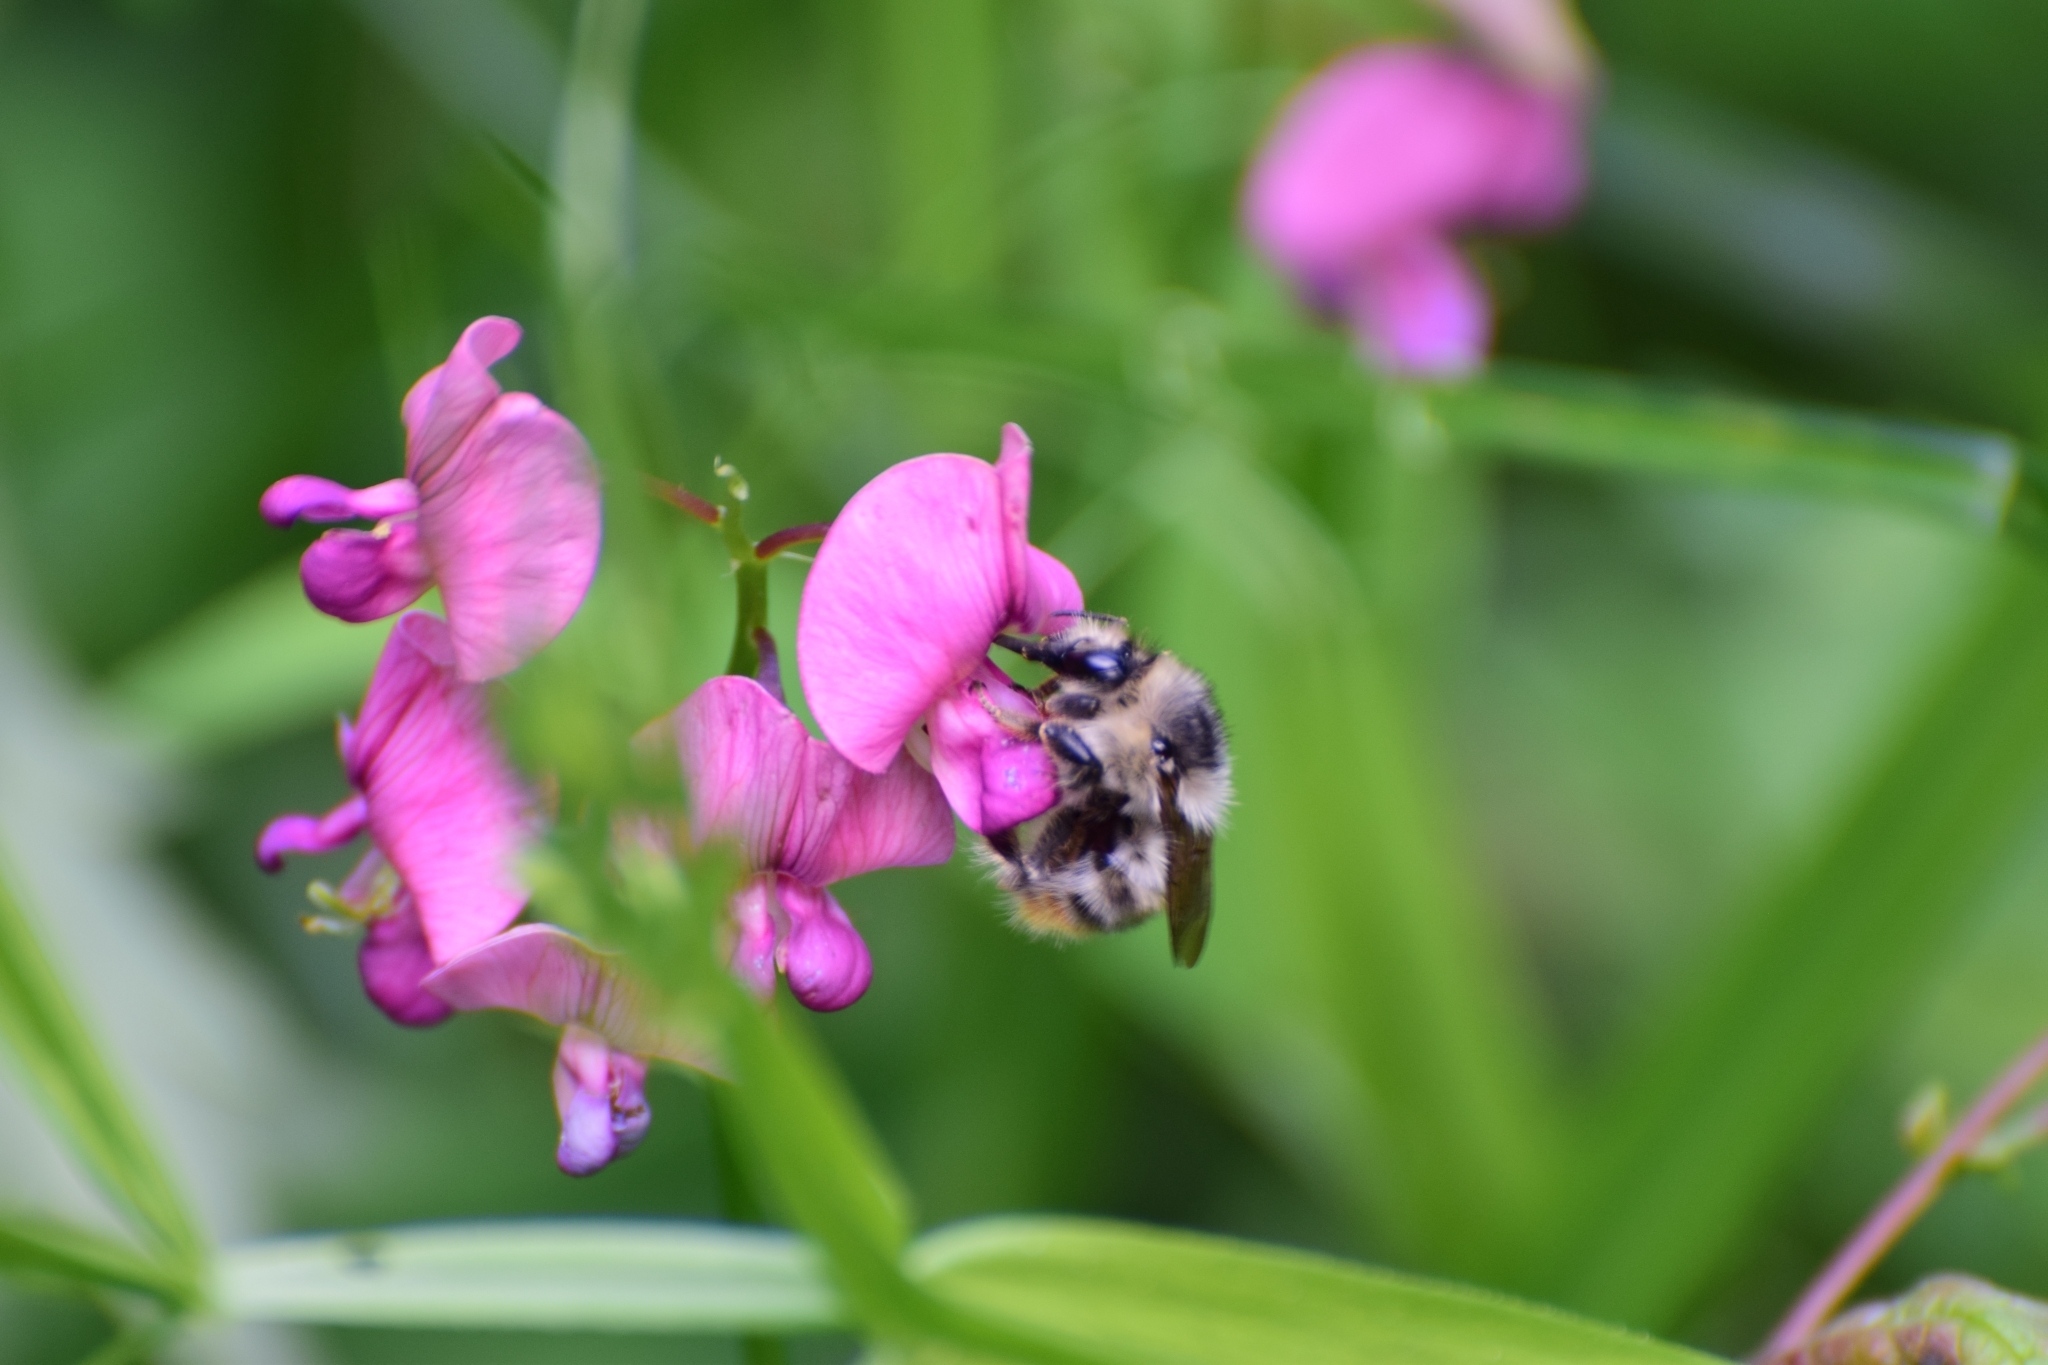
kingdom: Plantae
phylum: Tracheophyta
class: Magnoliopsida
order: Fabales
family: Fabaceae
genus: Lathyrus
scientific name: Lathyrus sylvestris
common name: Flat pea
